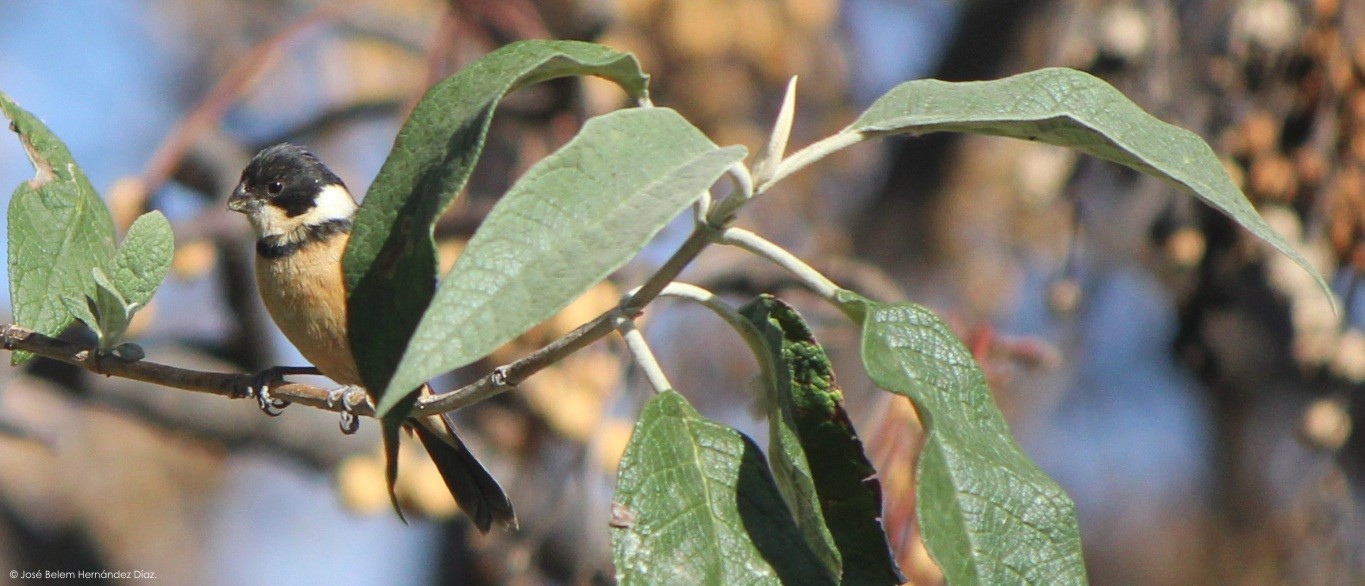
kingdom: Animalia
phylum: Chordata
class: Aves
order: Passeriformes
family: Thraupidae
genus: Sporophila
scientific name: Sporophila torqueola
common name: White-collared seedeater
